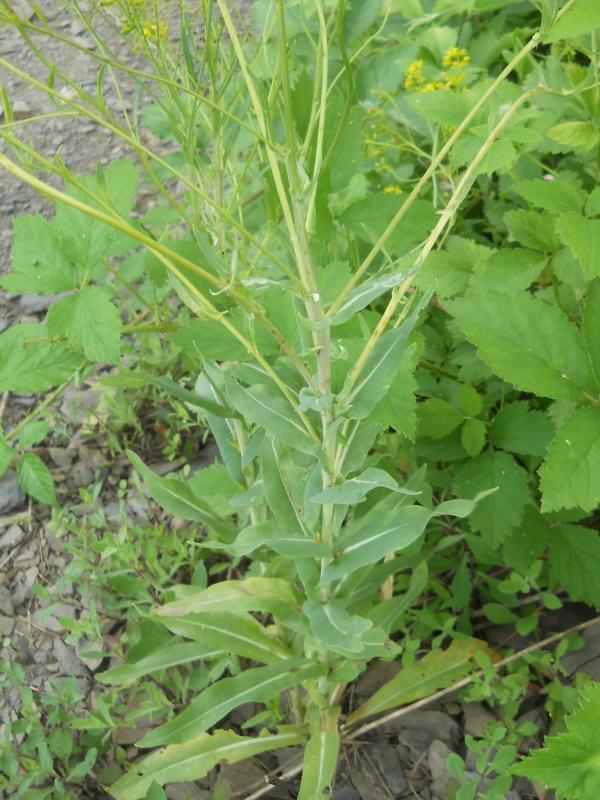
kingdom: Plantae
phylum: Tracheophyta
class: Magnoliopsida
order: Brassicales
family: Brassicaceae
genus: Isatis
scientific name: Isatis tinctoria
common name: Woad
